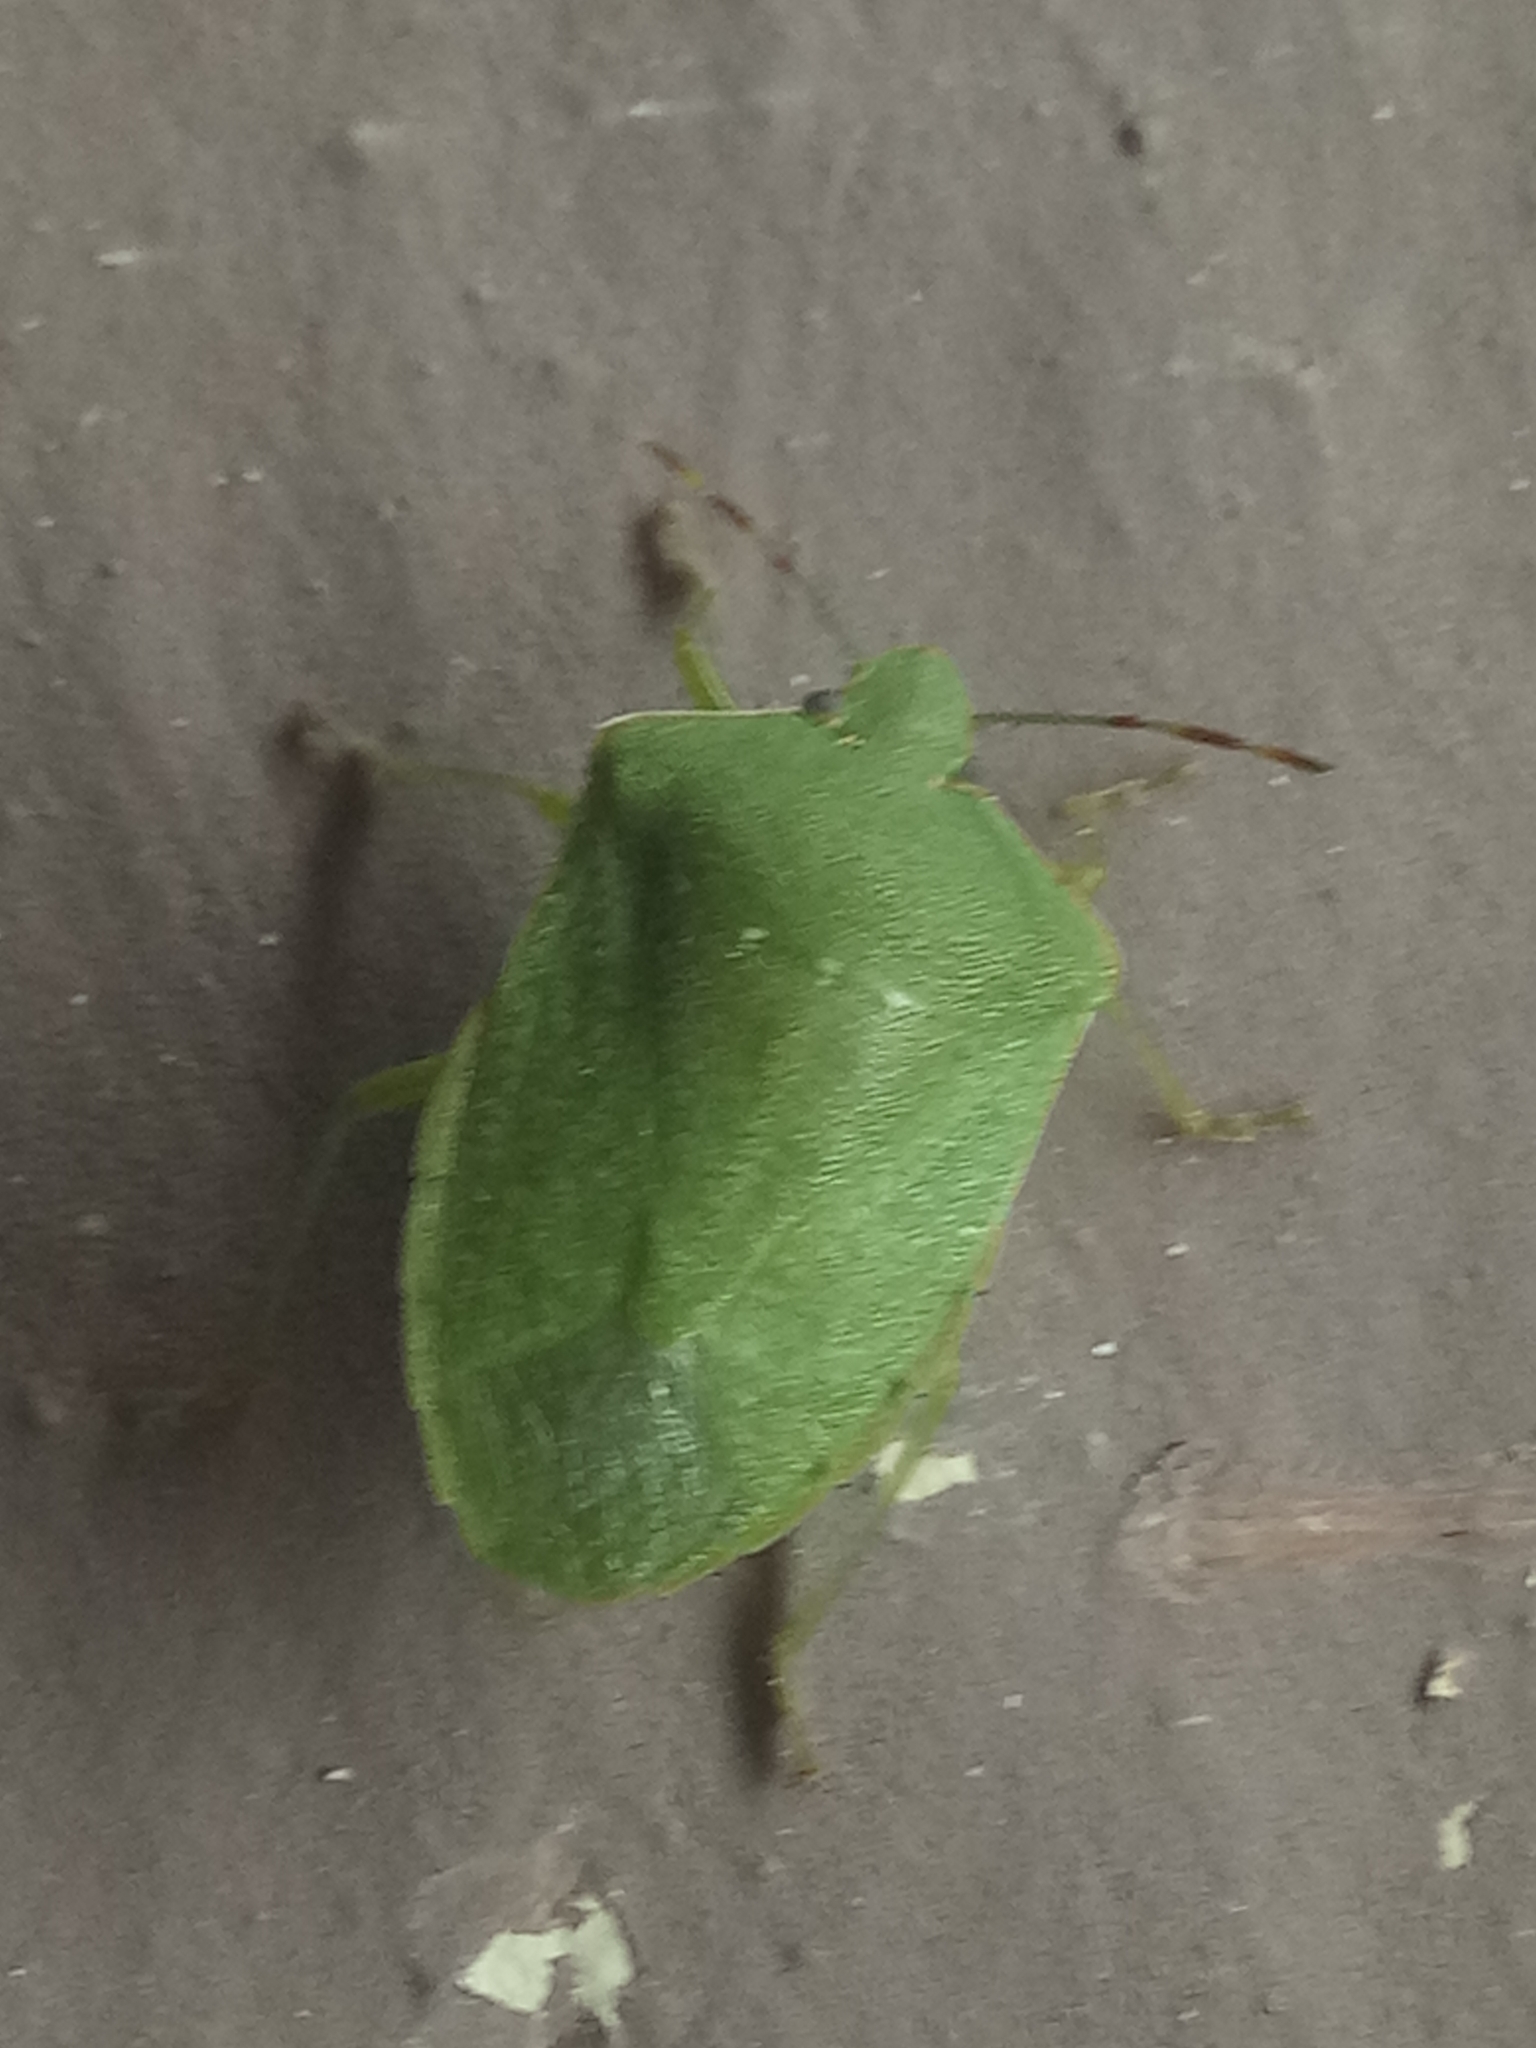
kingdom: Animalia
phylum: Arthropoda
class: Insecta
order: Hemiptera
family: Pentatomidae
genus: Nezara
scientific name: Nezara viridula
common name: Southern green stink bug
